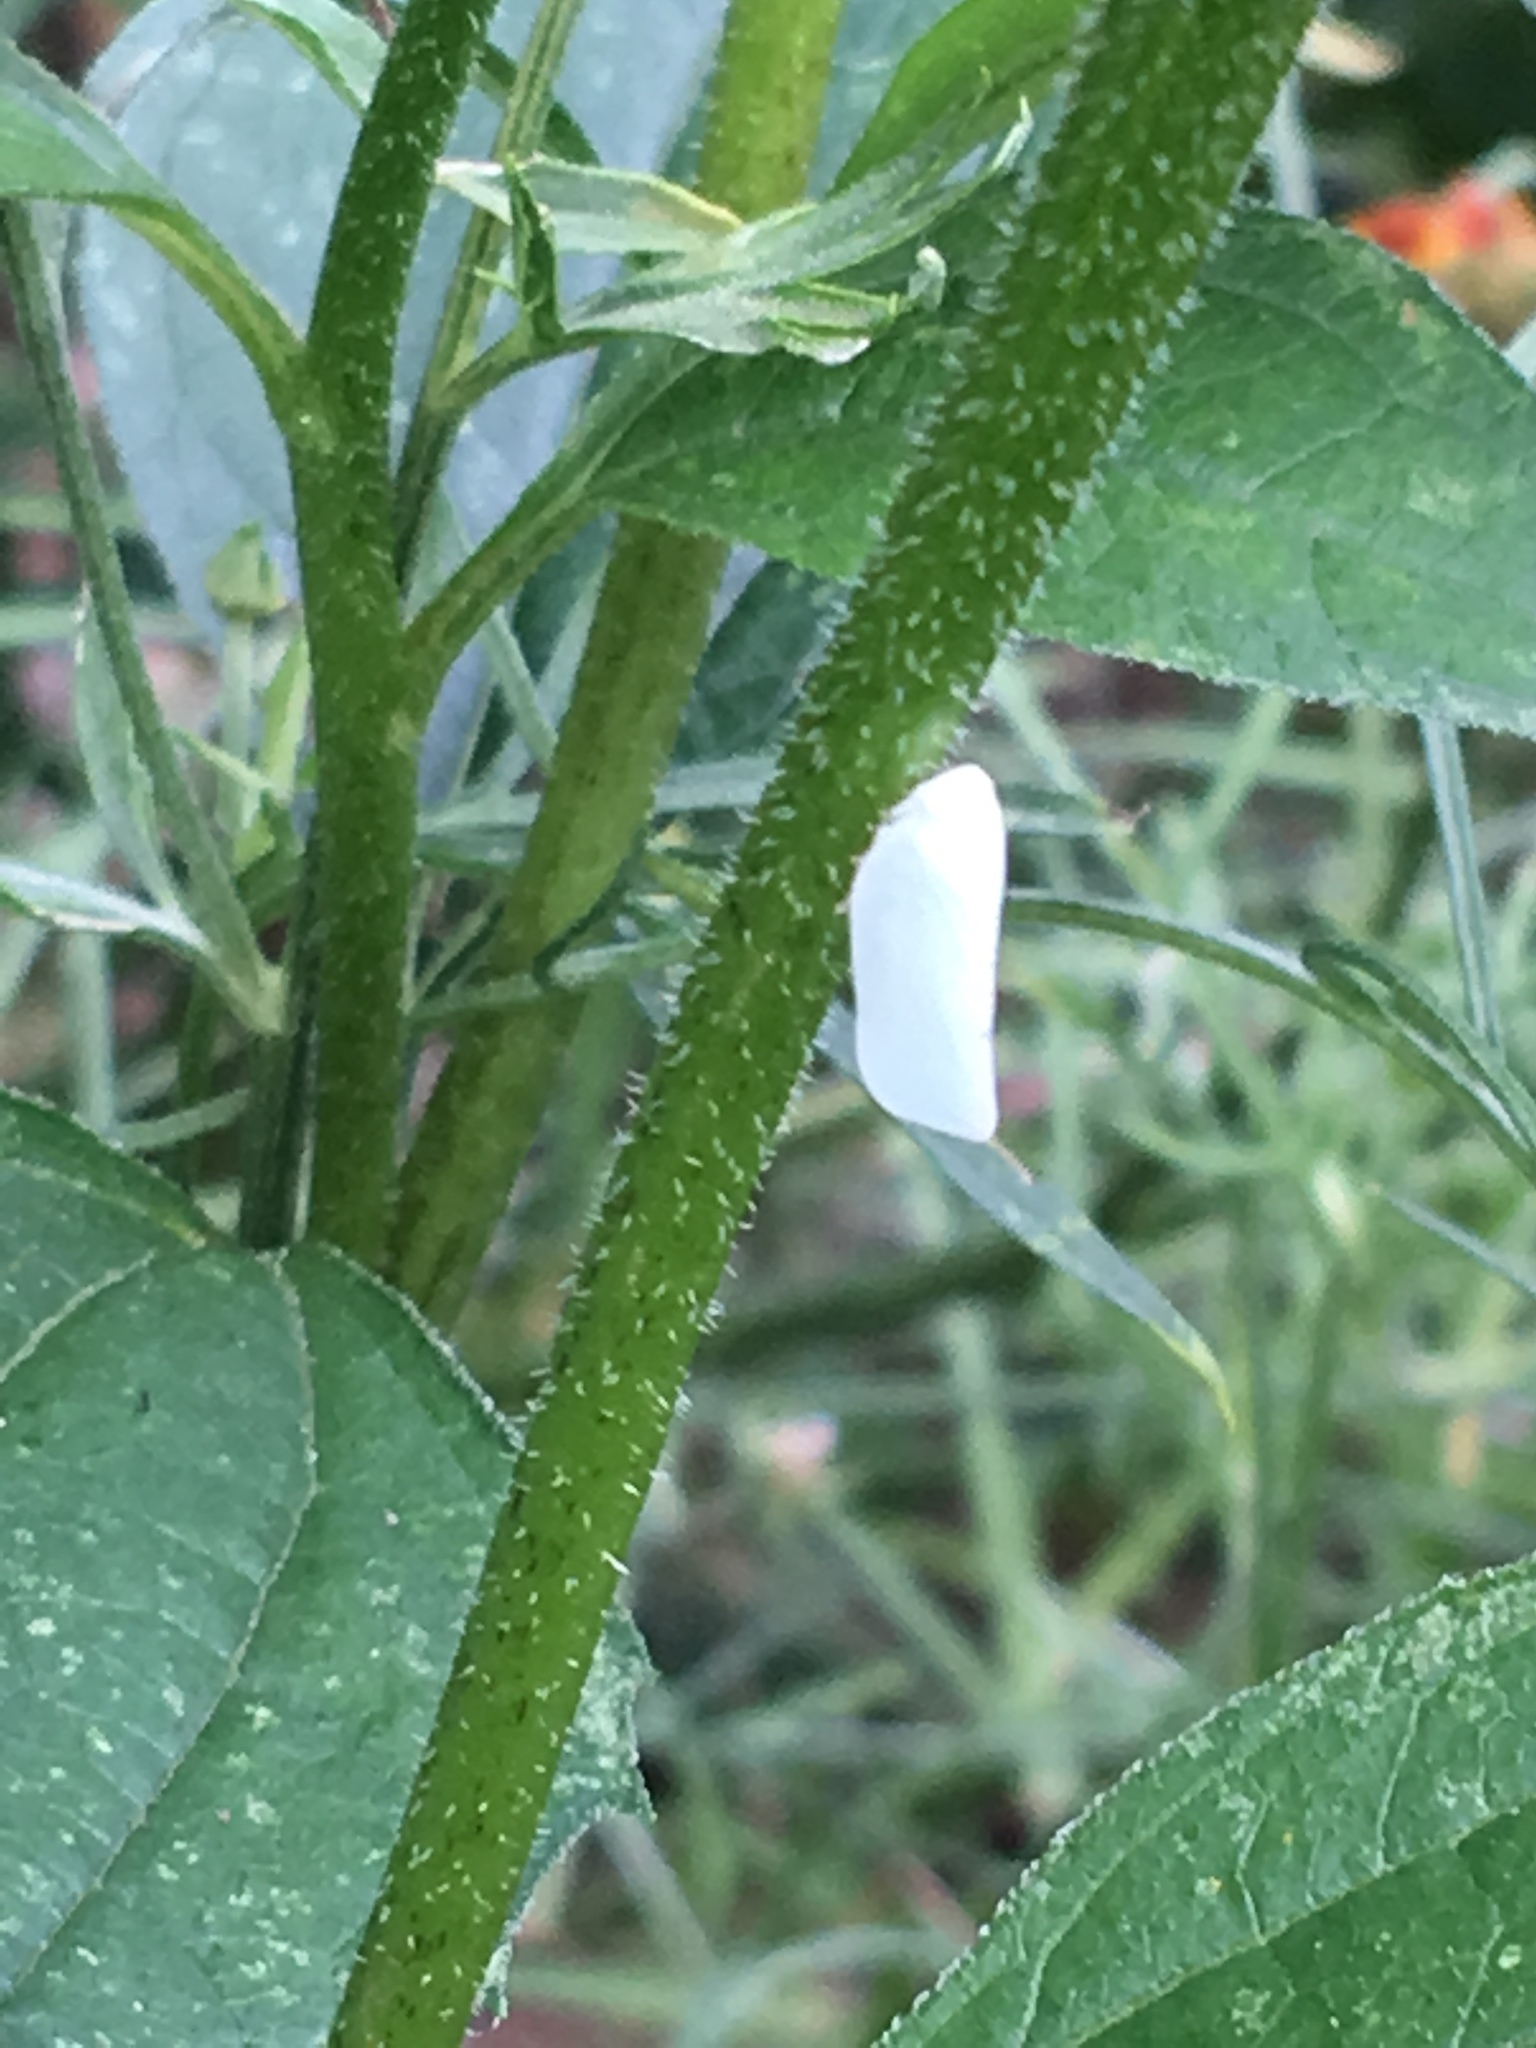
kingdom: Animalia
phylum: Arthropoda
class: Insecta
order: Hemiptera
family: Flatidae
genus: Flatormenis
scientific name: Flatormenis proxima
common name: Northern flatid planthopper
